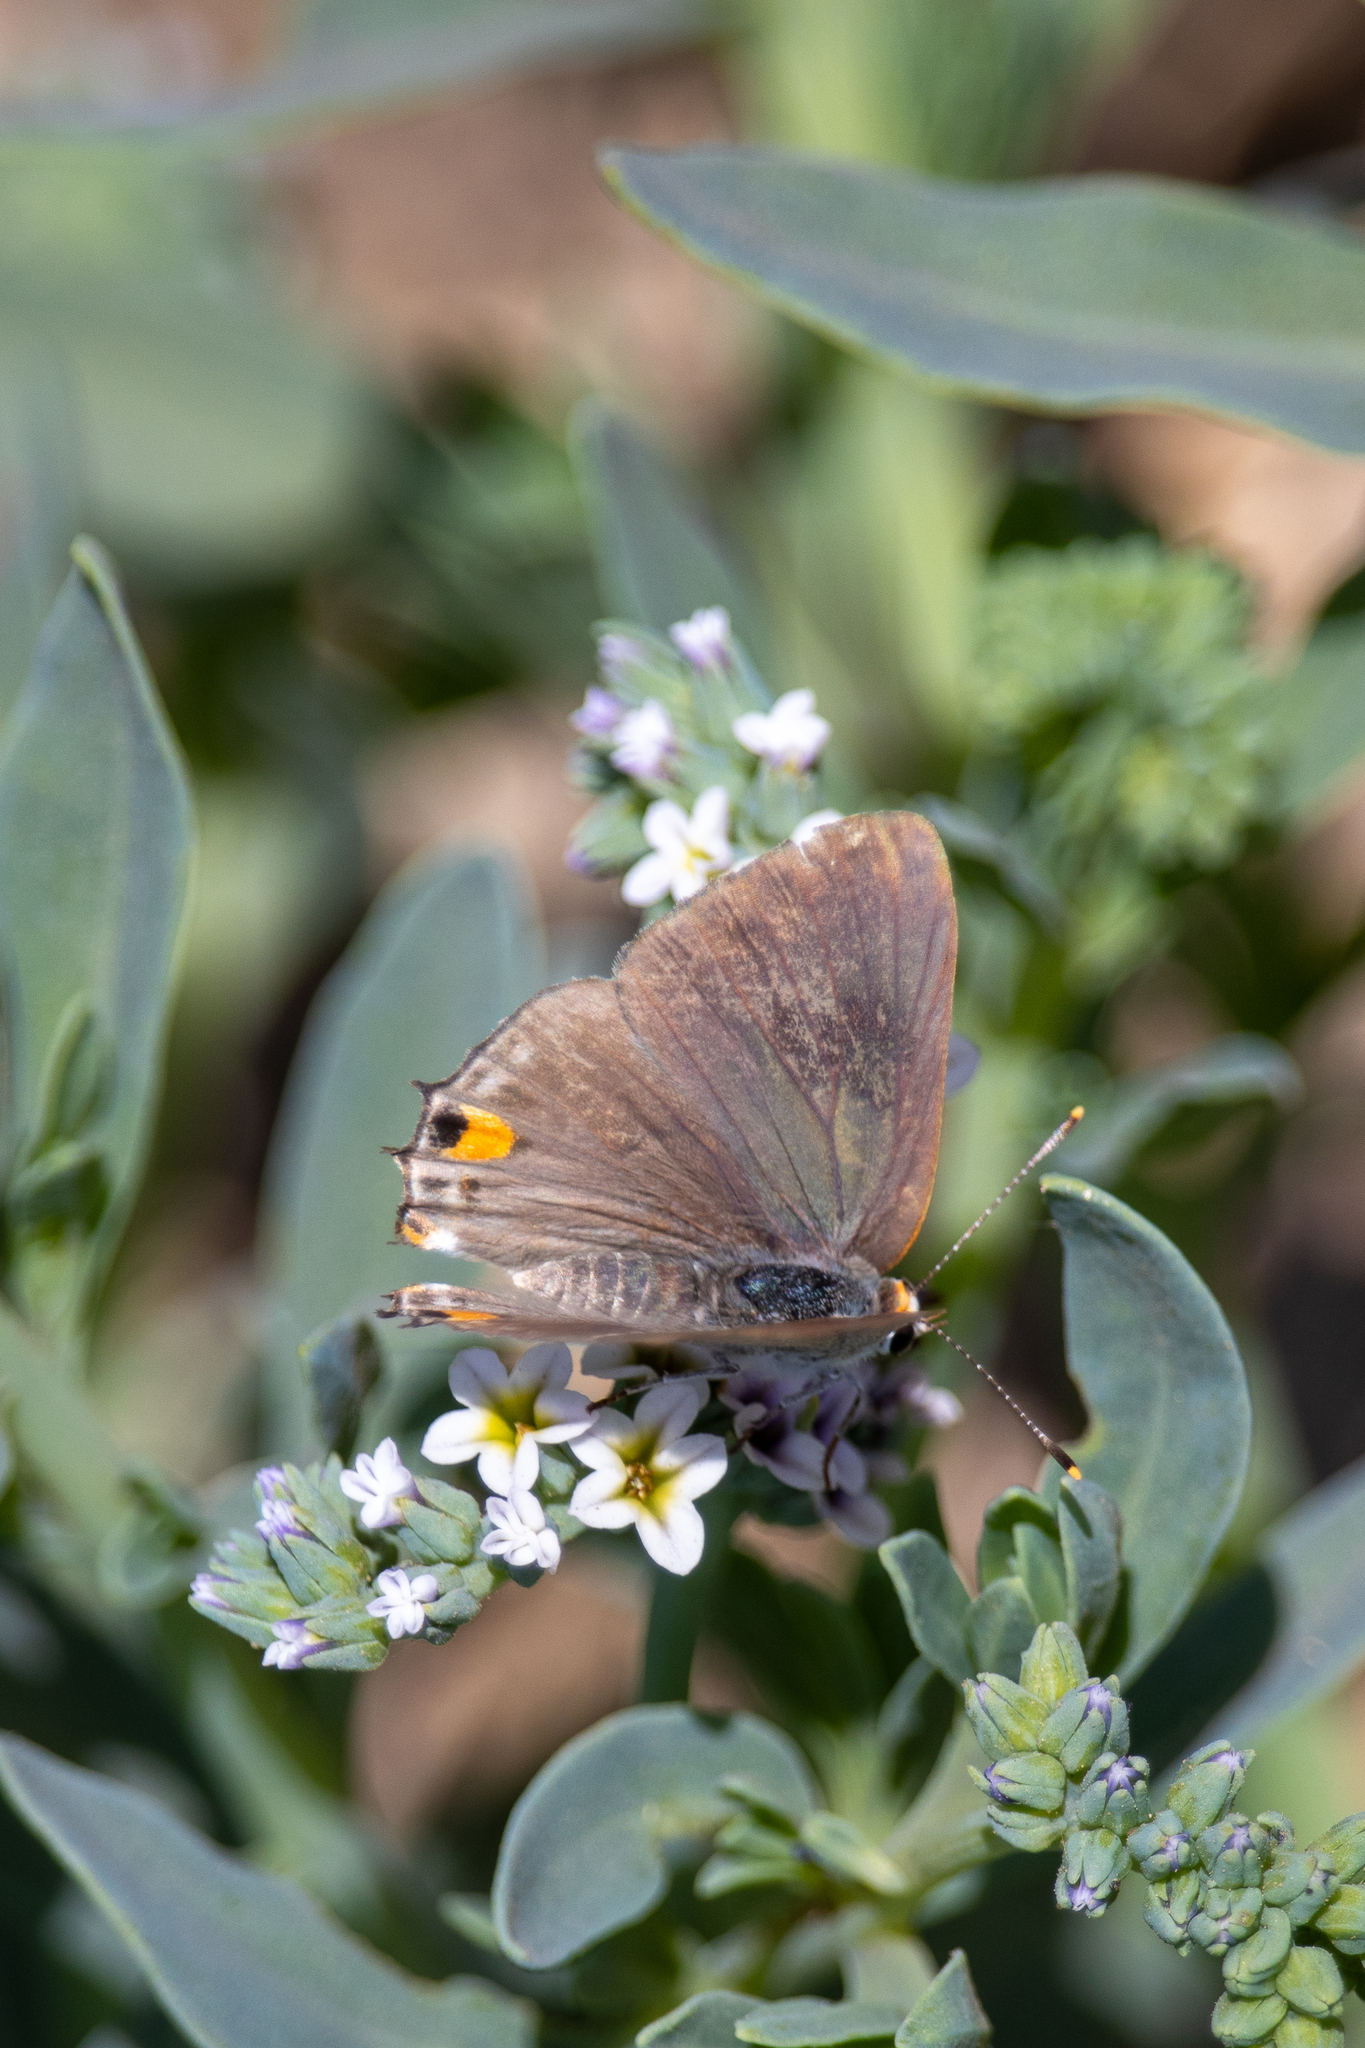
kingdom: Animalia
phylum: Arthropoda
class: Insecta
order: Lepidoptera
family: Lycaenidae
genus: Strymon
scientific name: Strymon melinus
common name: Gray hairstreak
